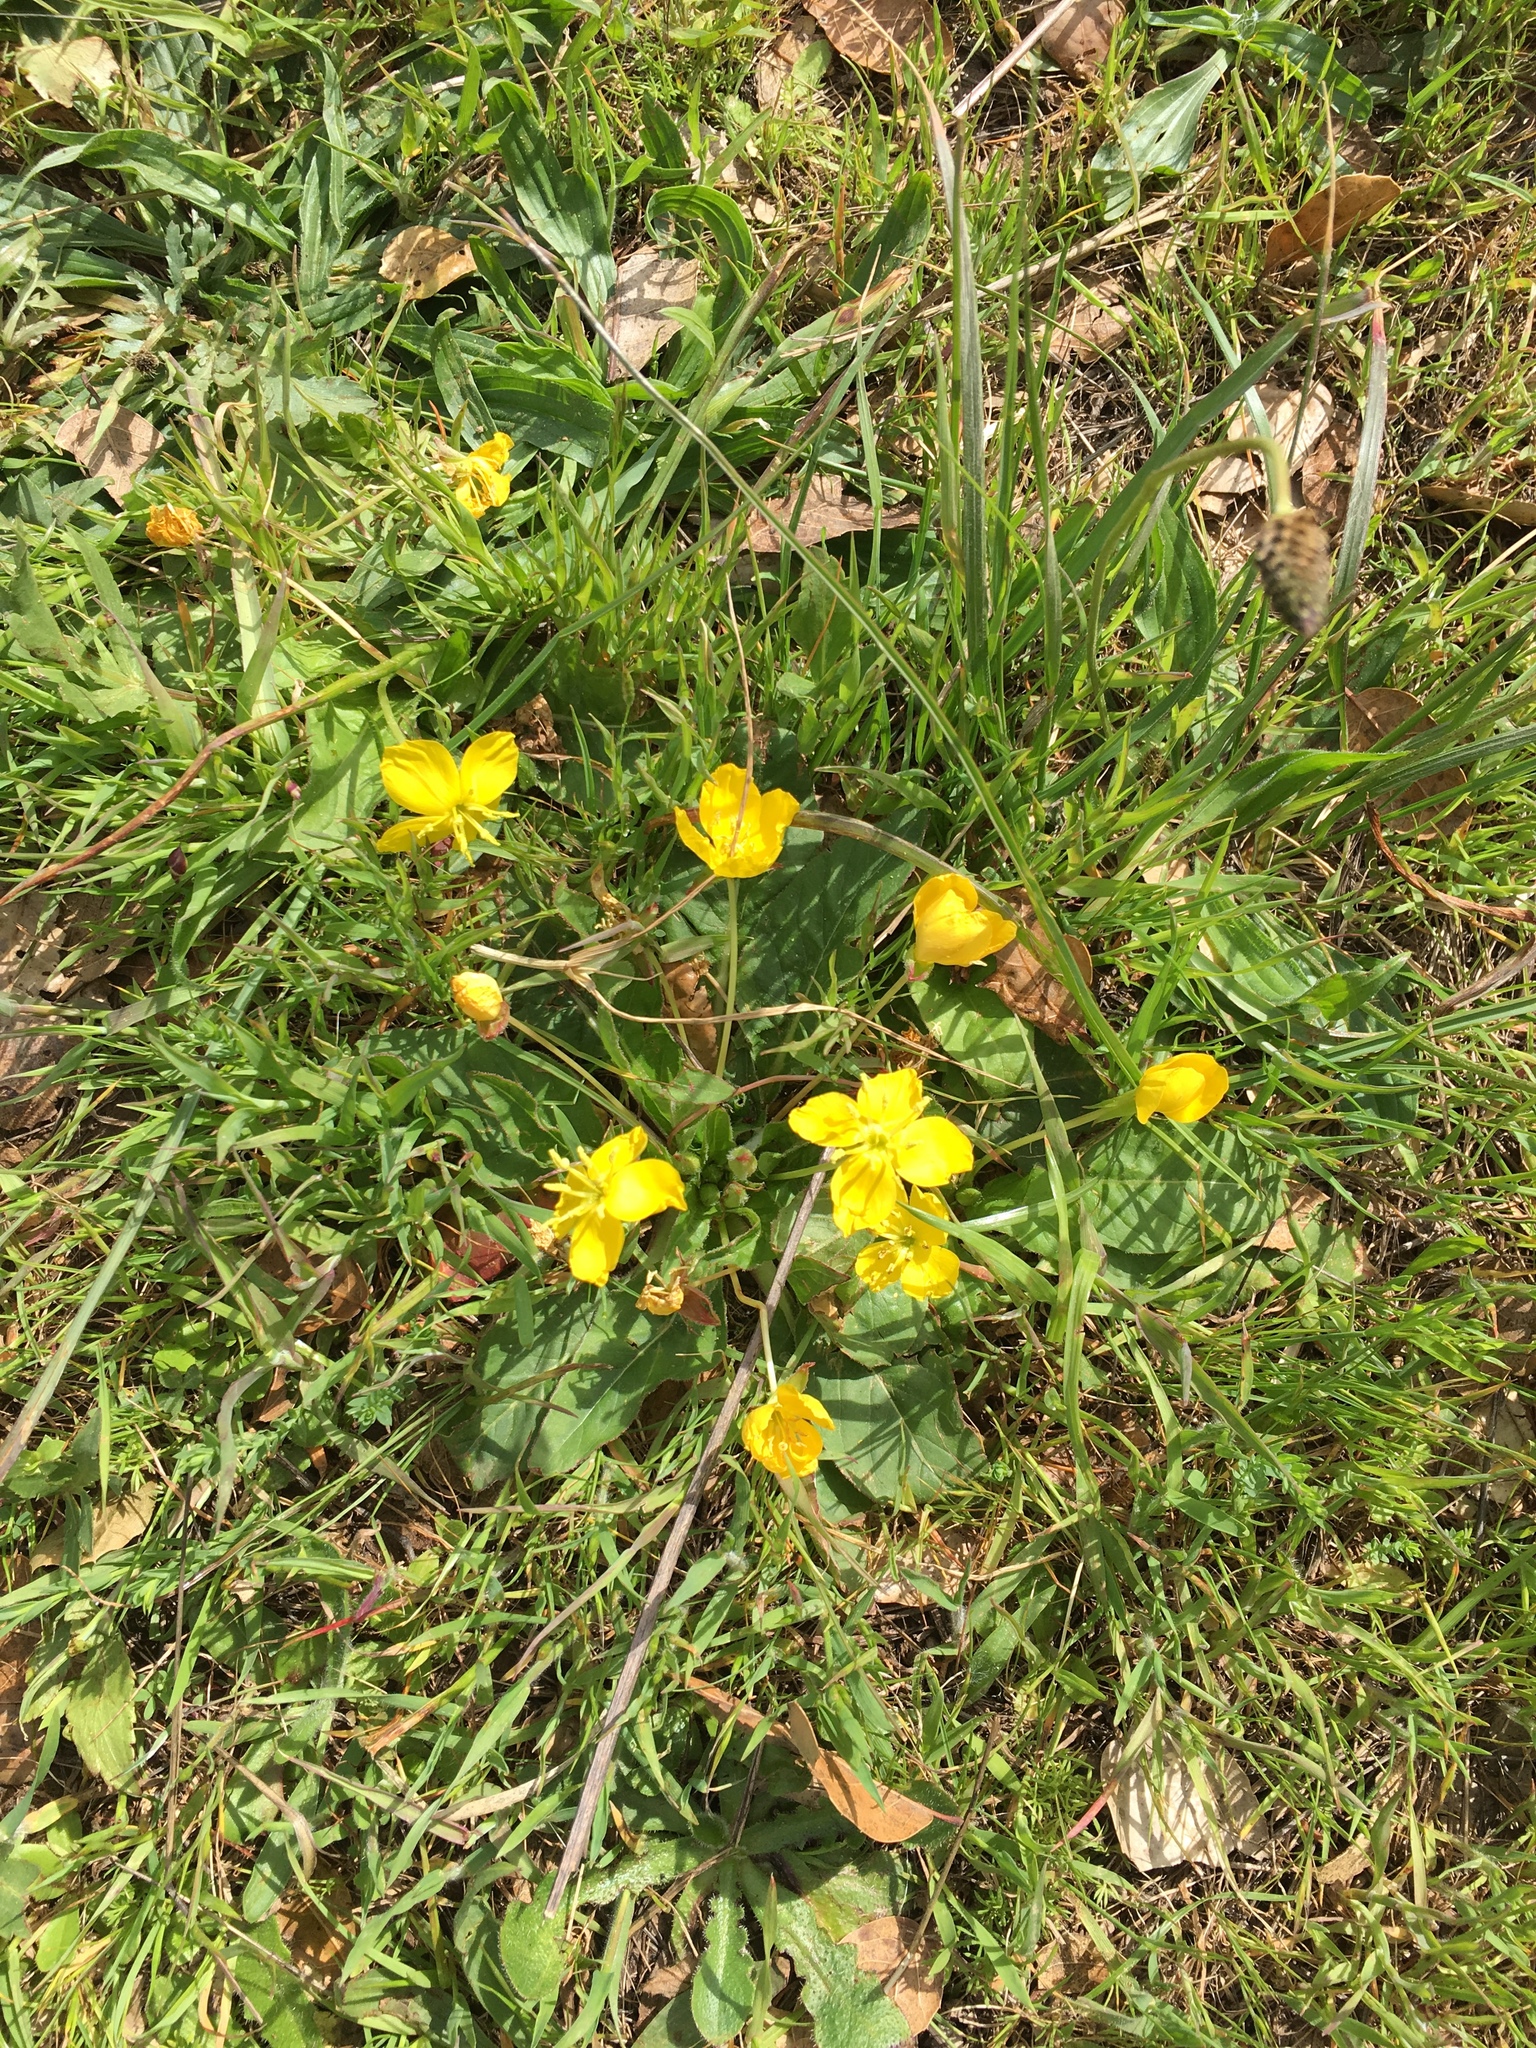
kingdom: Plantae
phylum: Tracheophyta
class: Magnoliopsida
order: Myrtales
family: Onagraceae
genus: Taraxia
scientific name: Taraxia ovata
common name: Goldeneggs
